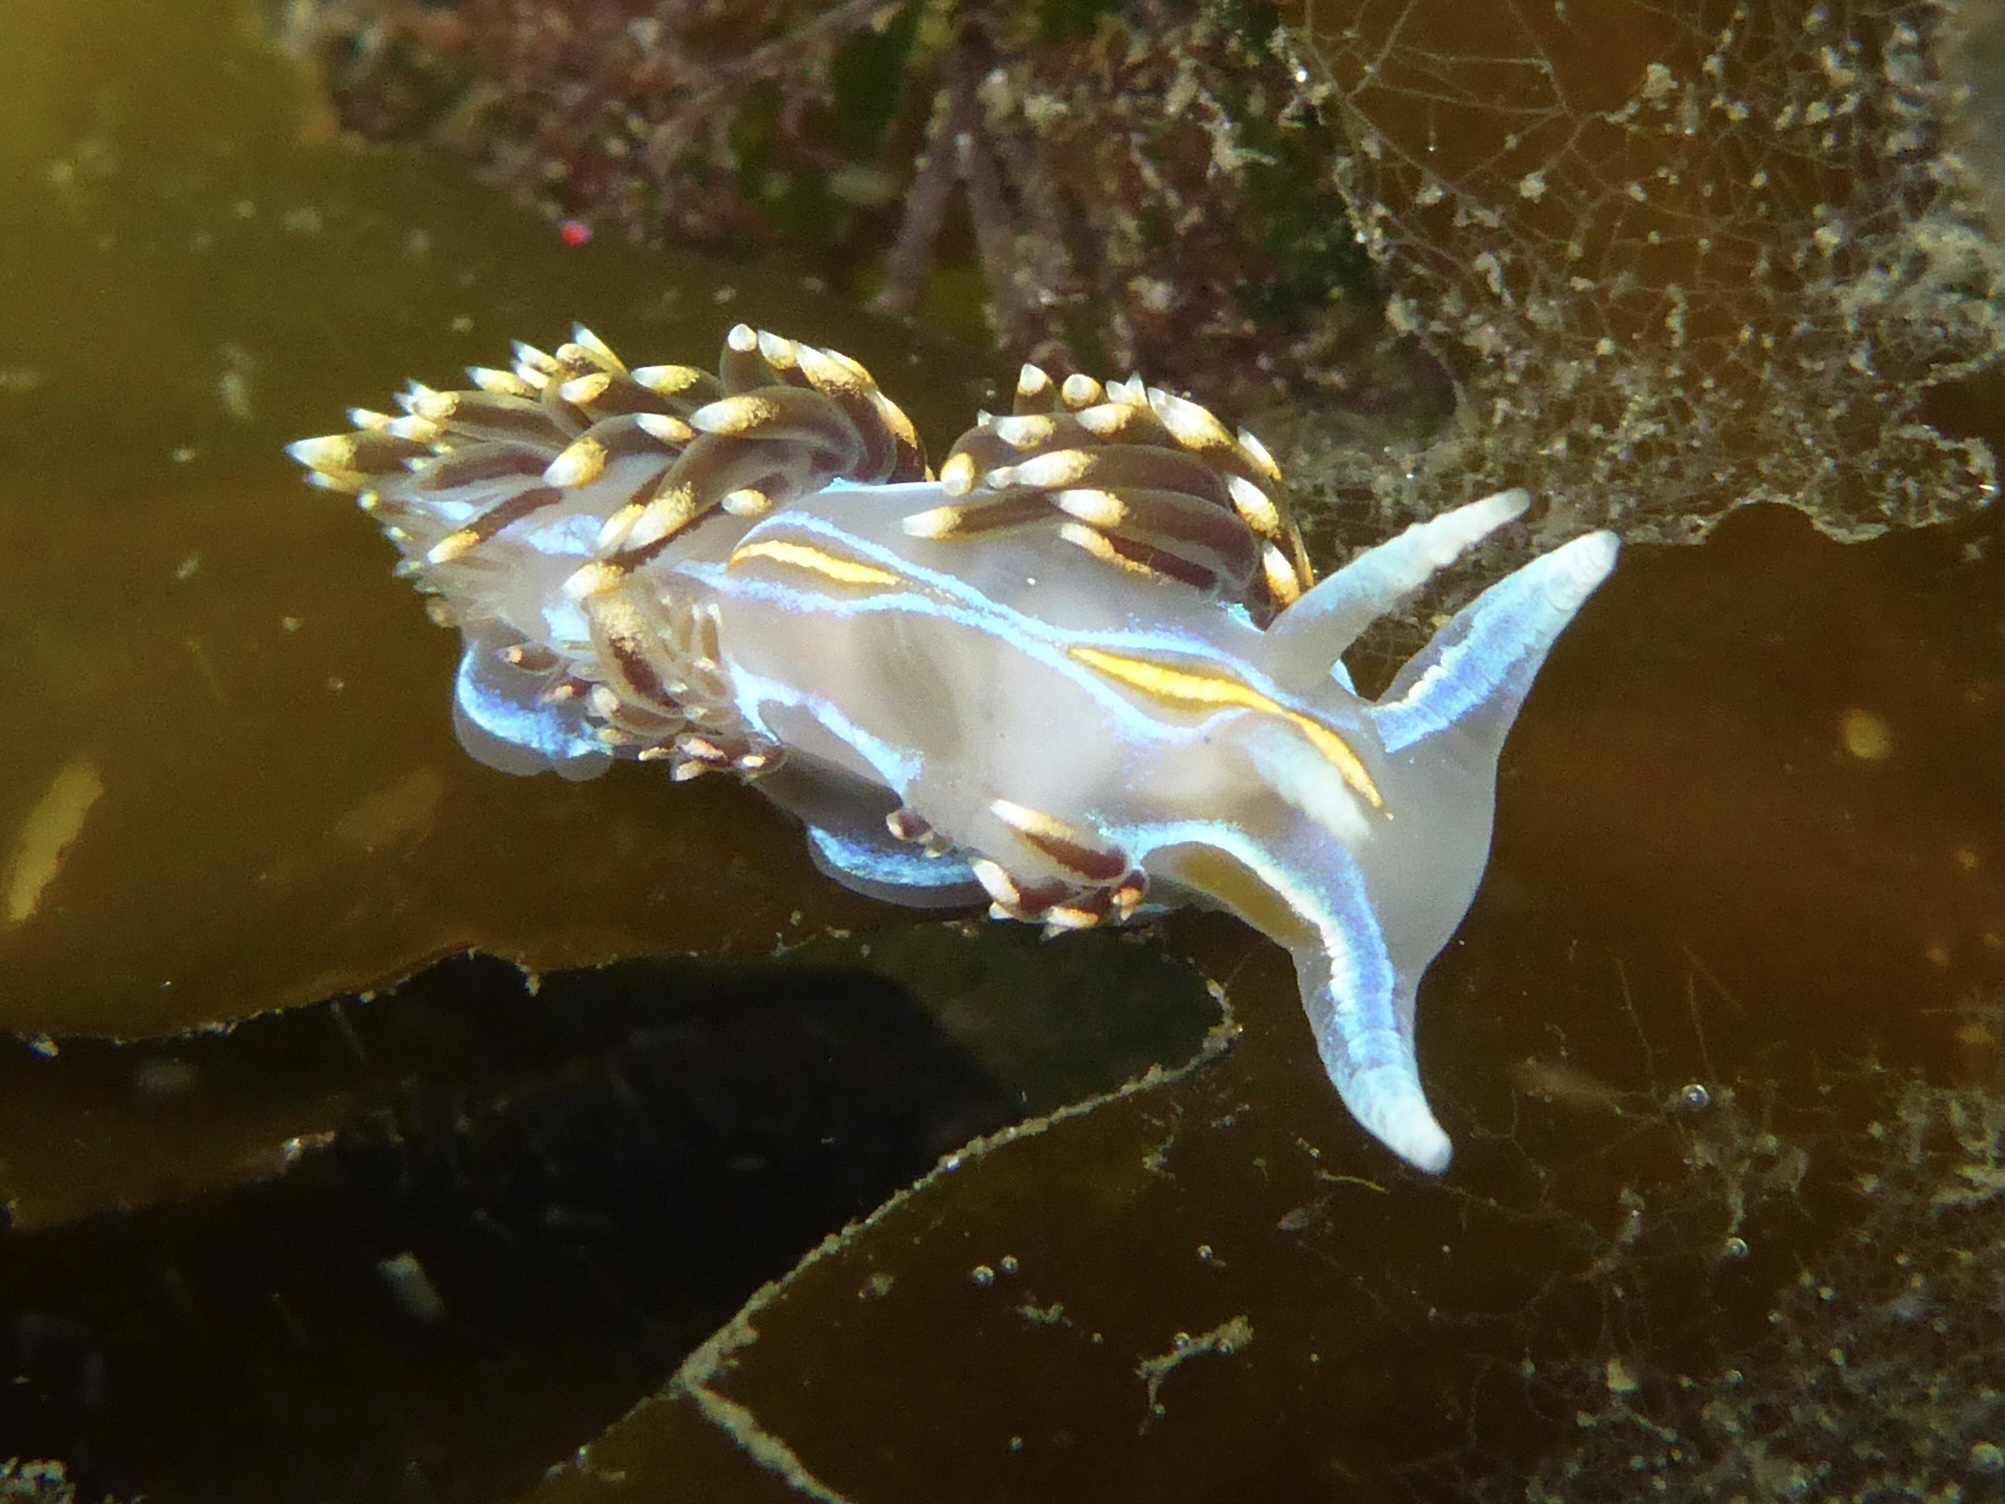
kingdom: Animalia
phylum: Mollusca
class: Gastropoda
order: Nudibranchia
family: Myrrhinidae
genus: Hermissenda
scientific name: Hermissenda opalescens
